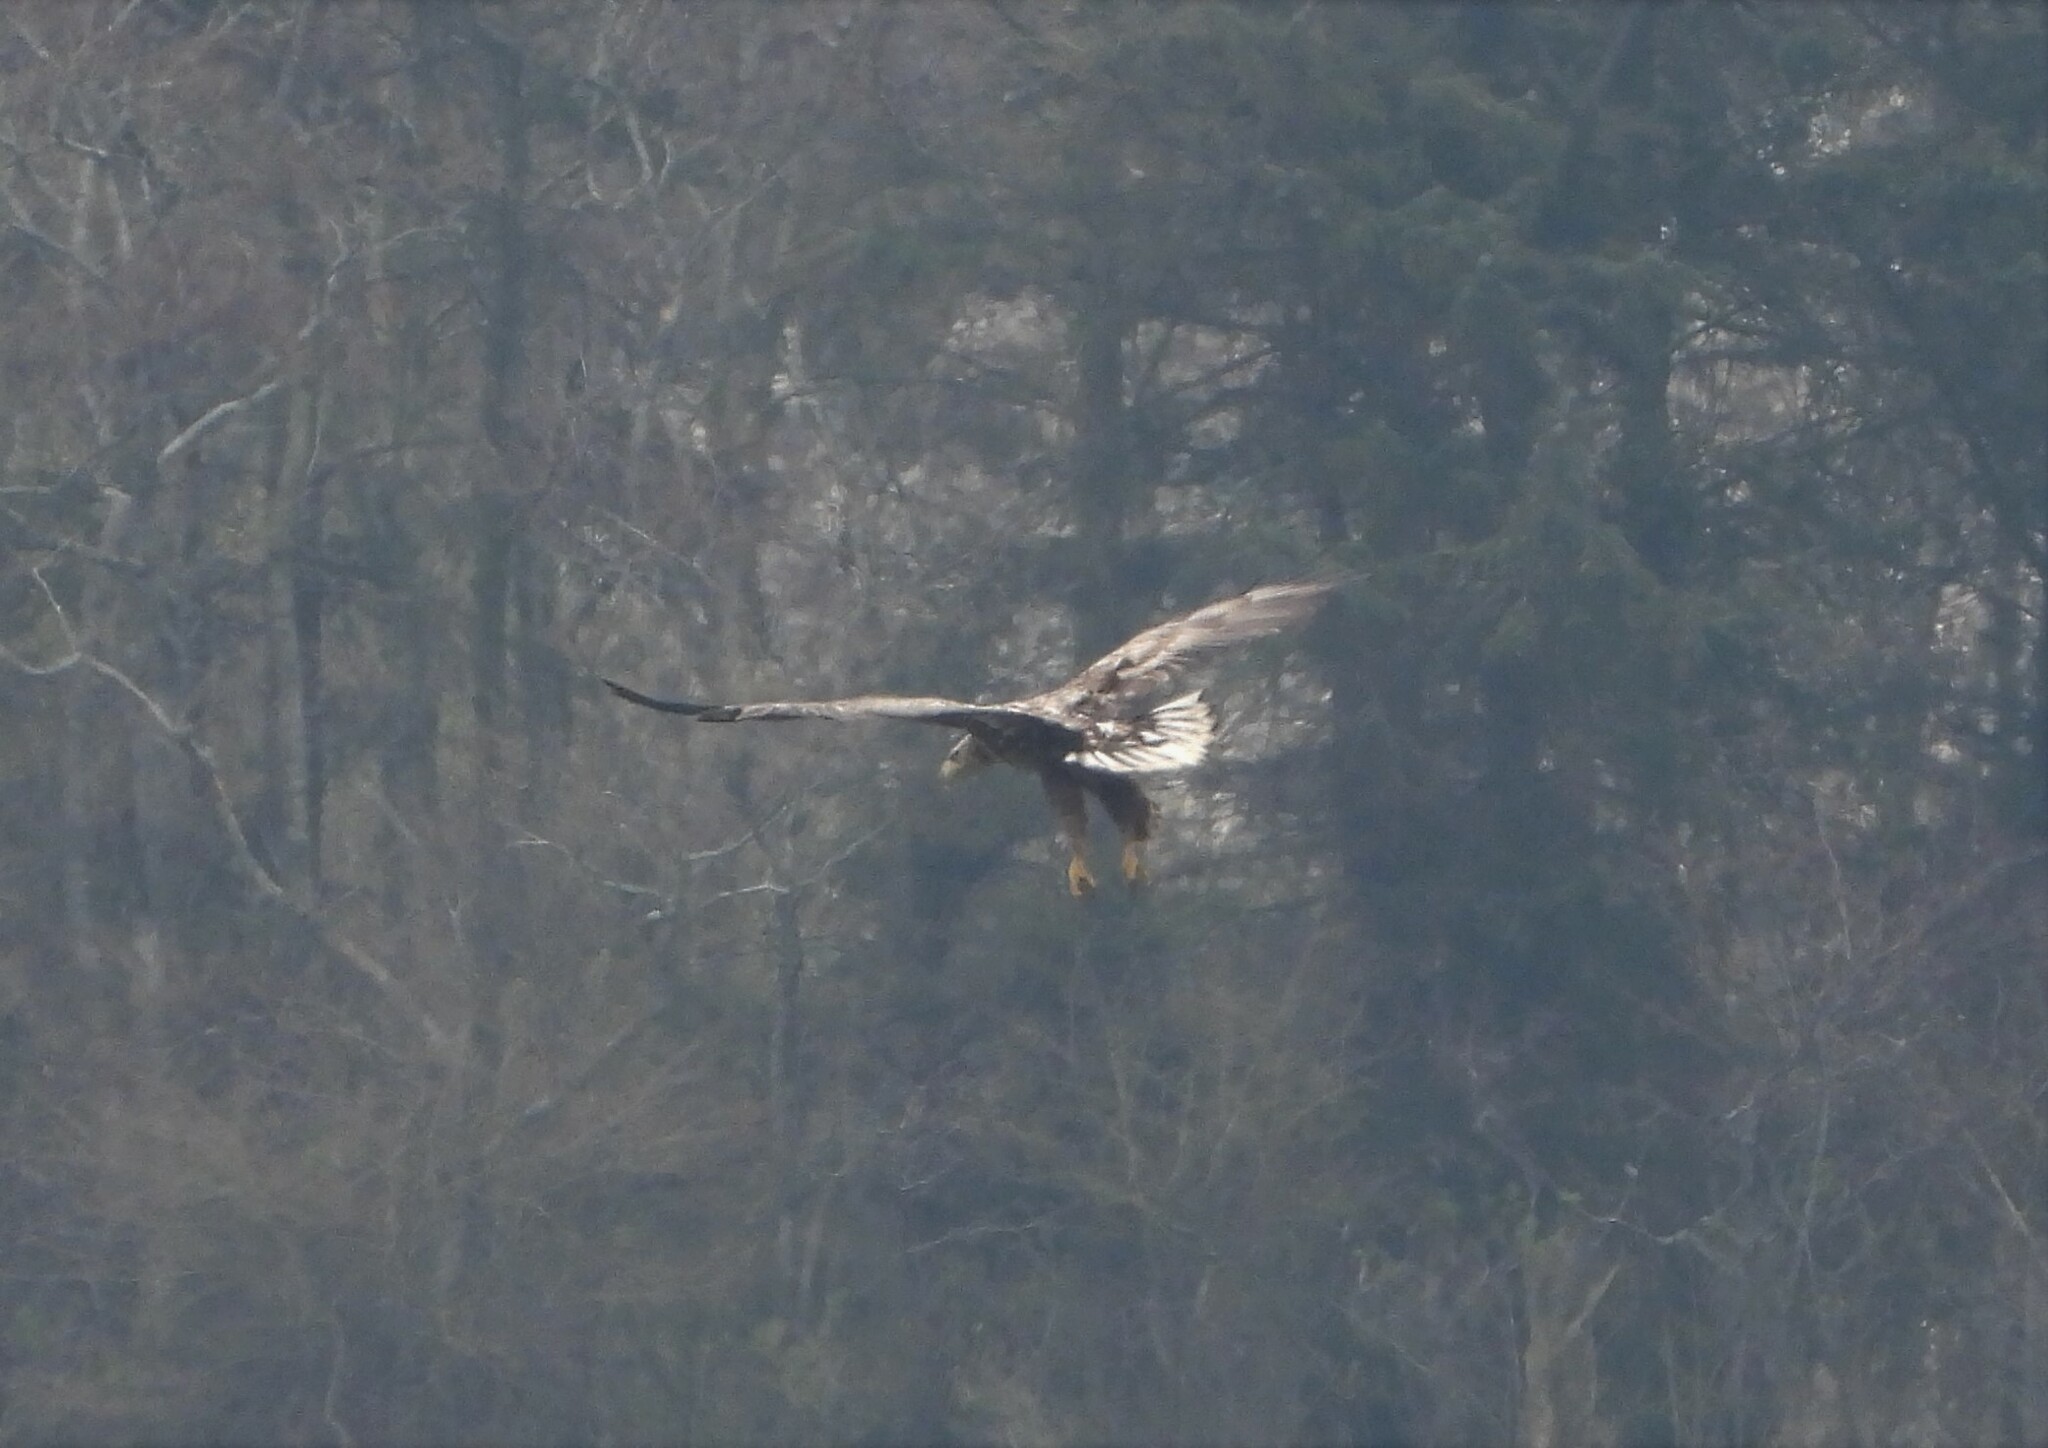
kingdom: Animalia
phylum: Chordata
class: Aves
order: Accipitriformes
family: Accipitridae
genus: Haliaeetus
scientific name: Haliaeetus albicilla
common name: White-tailed eagle
